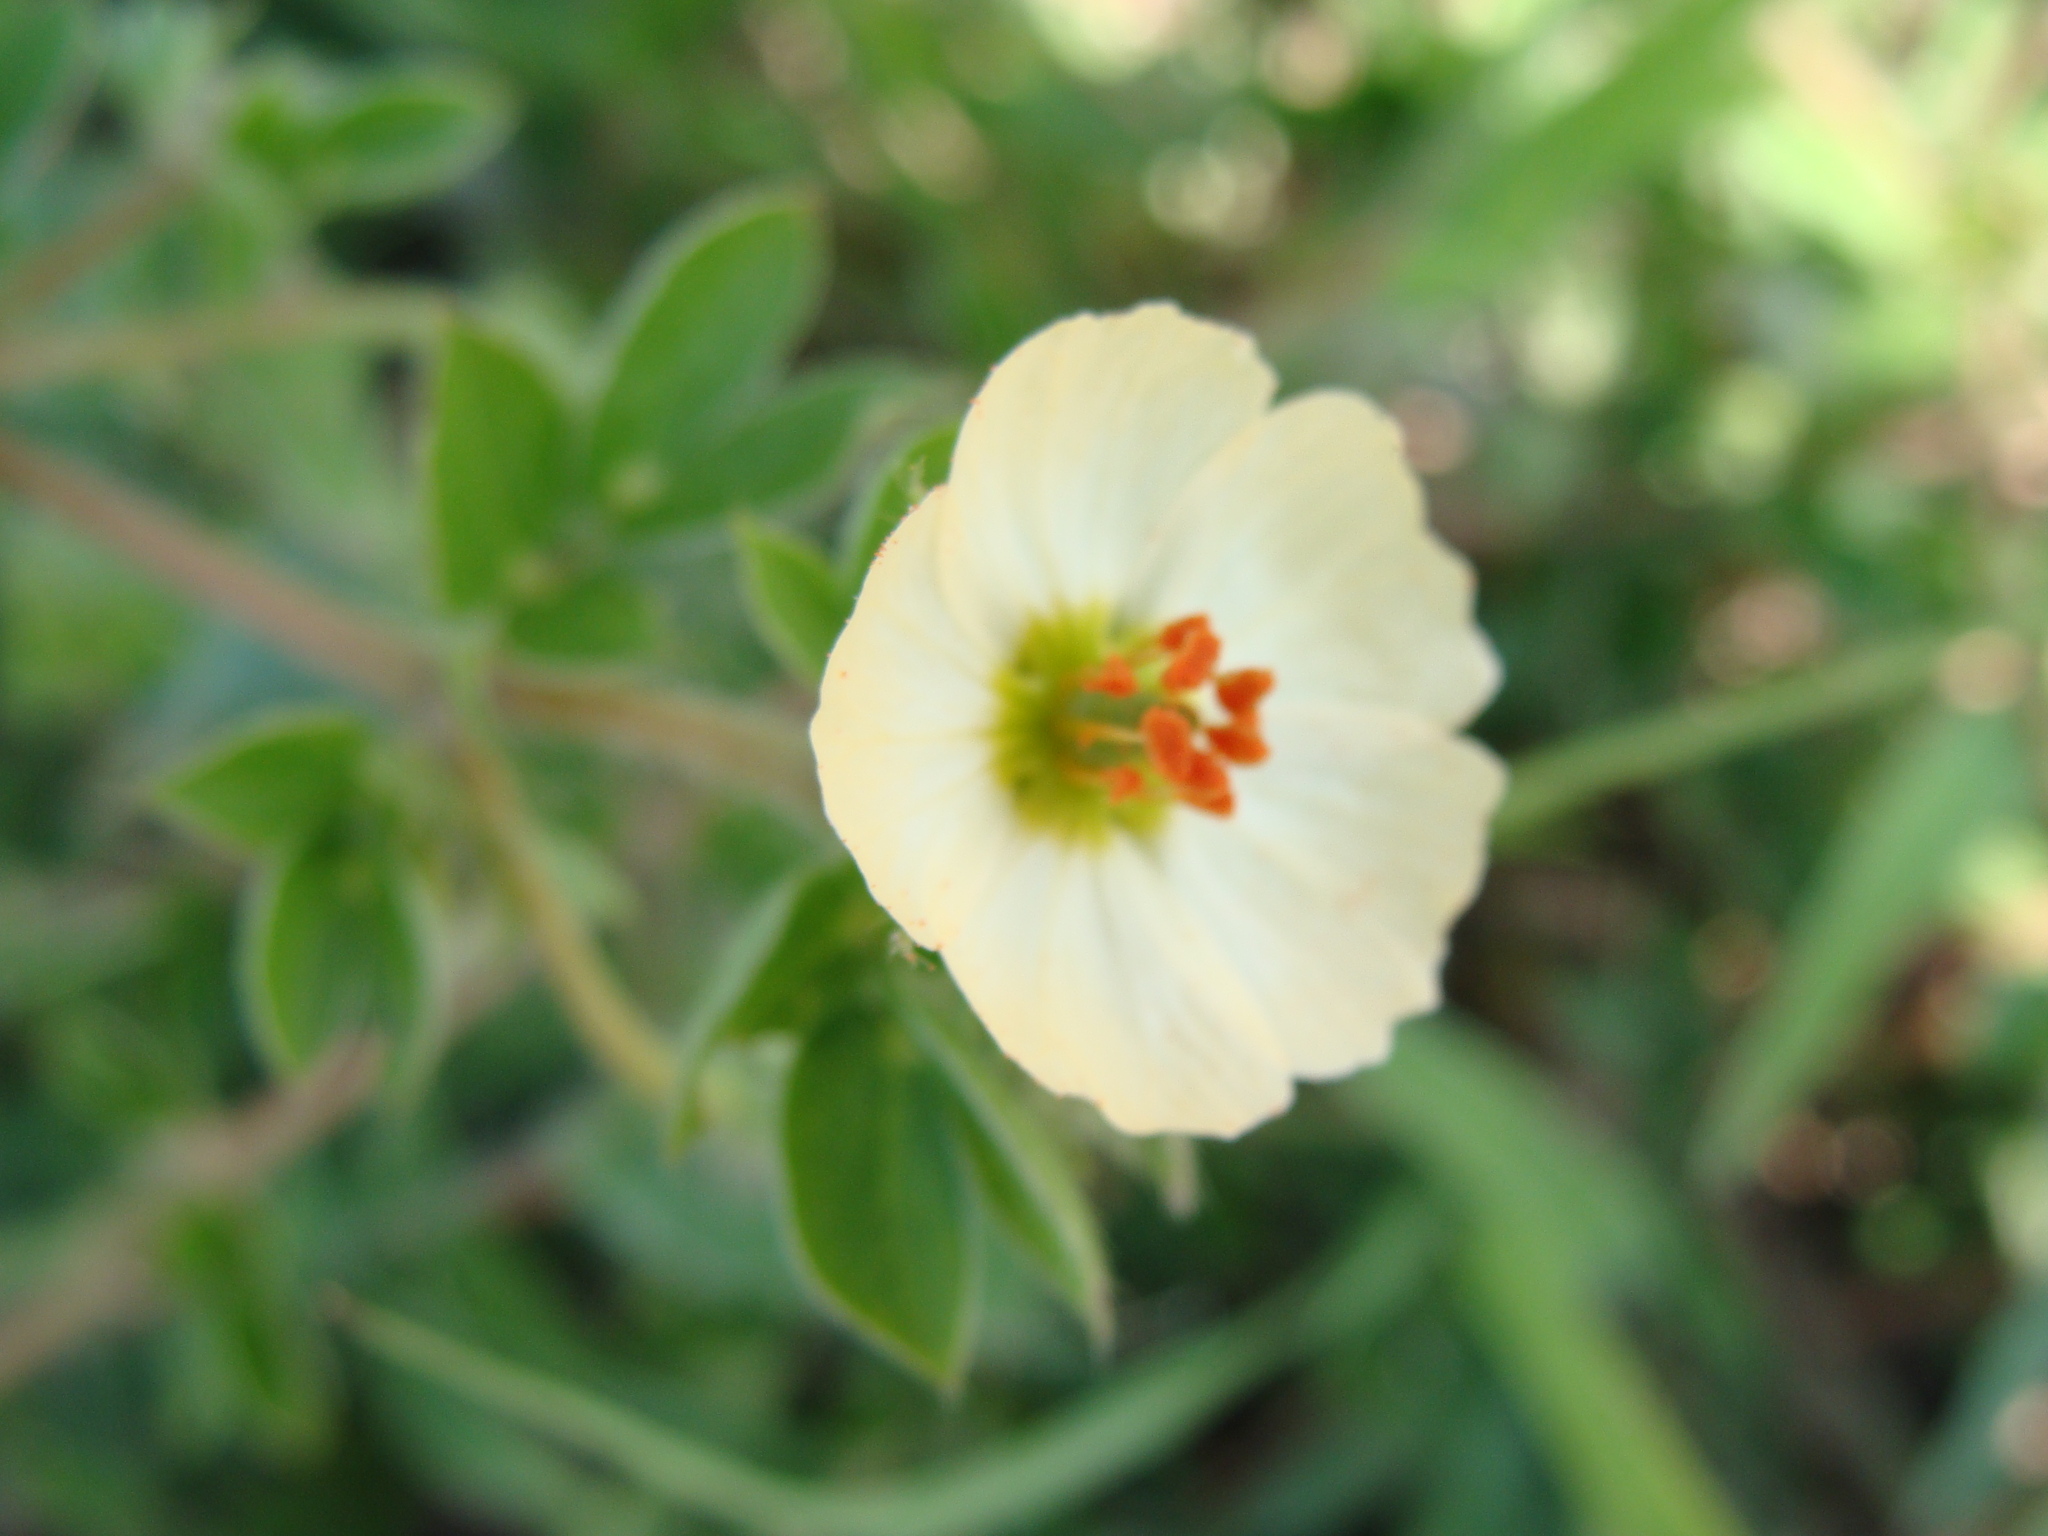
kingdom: Plantae
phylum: Tracheophyta
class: Magnoliopsida
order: Zygophyllales
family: Zygophyllaceae
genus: Kallstroemia
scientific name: Kallstroemia rosei
